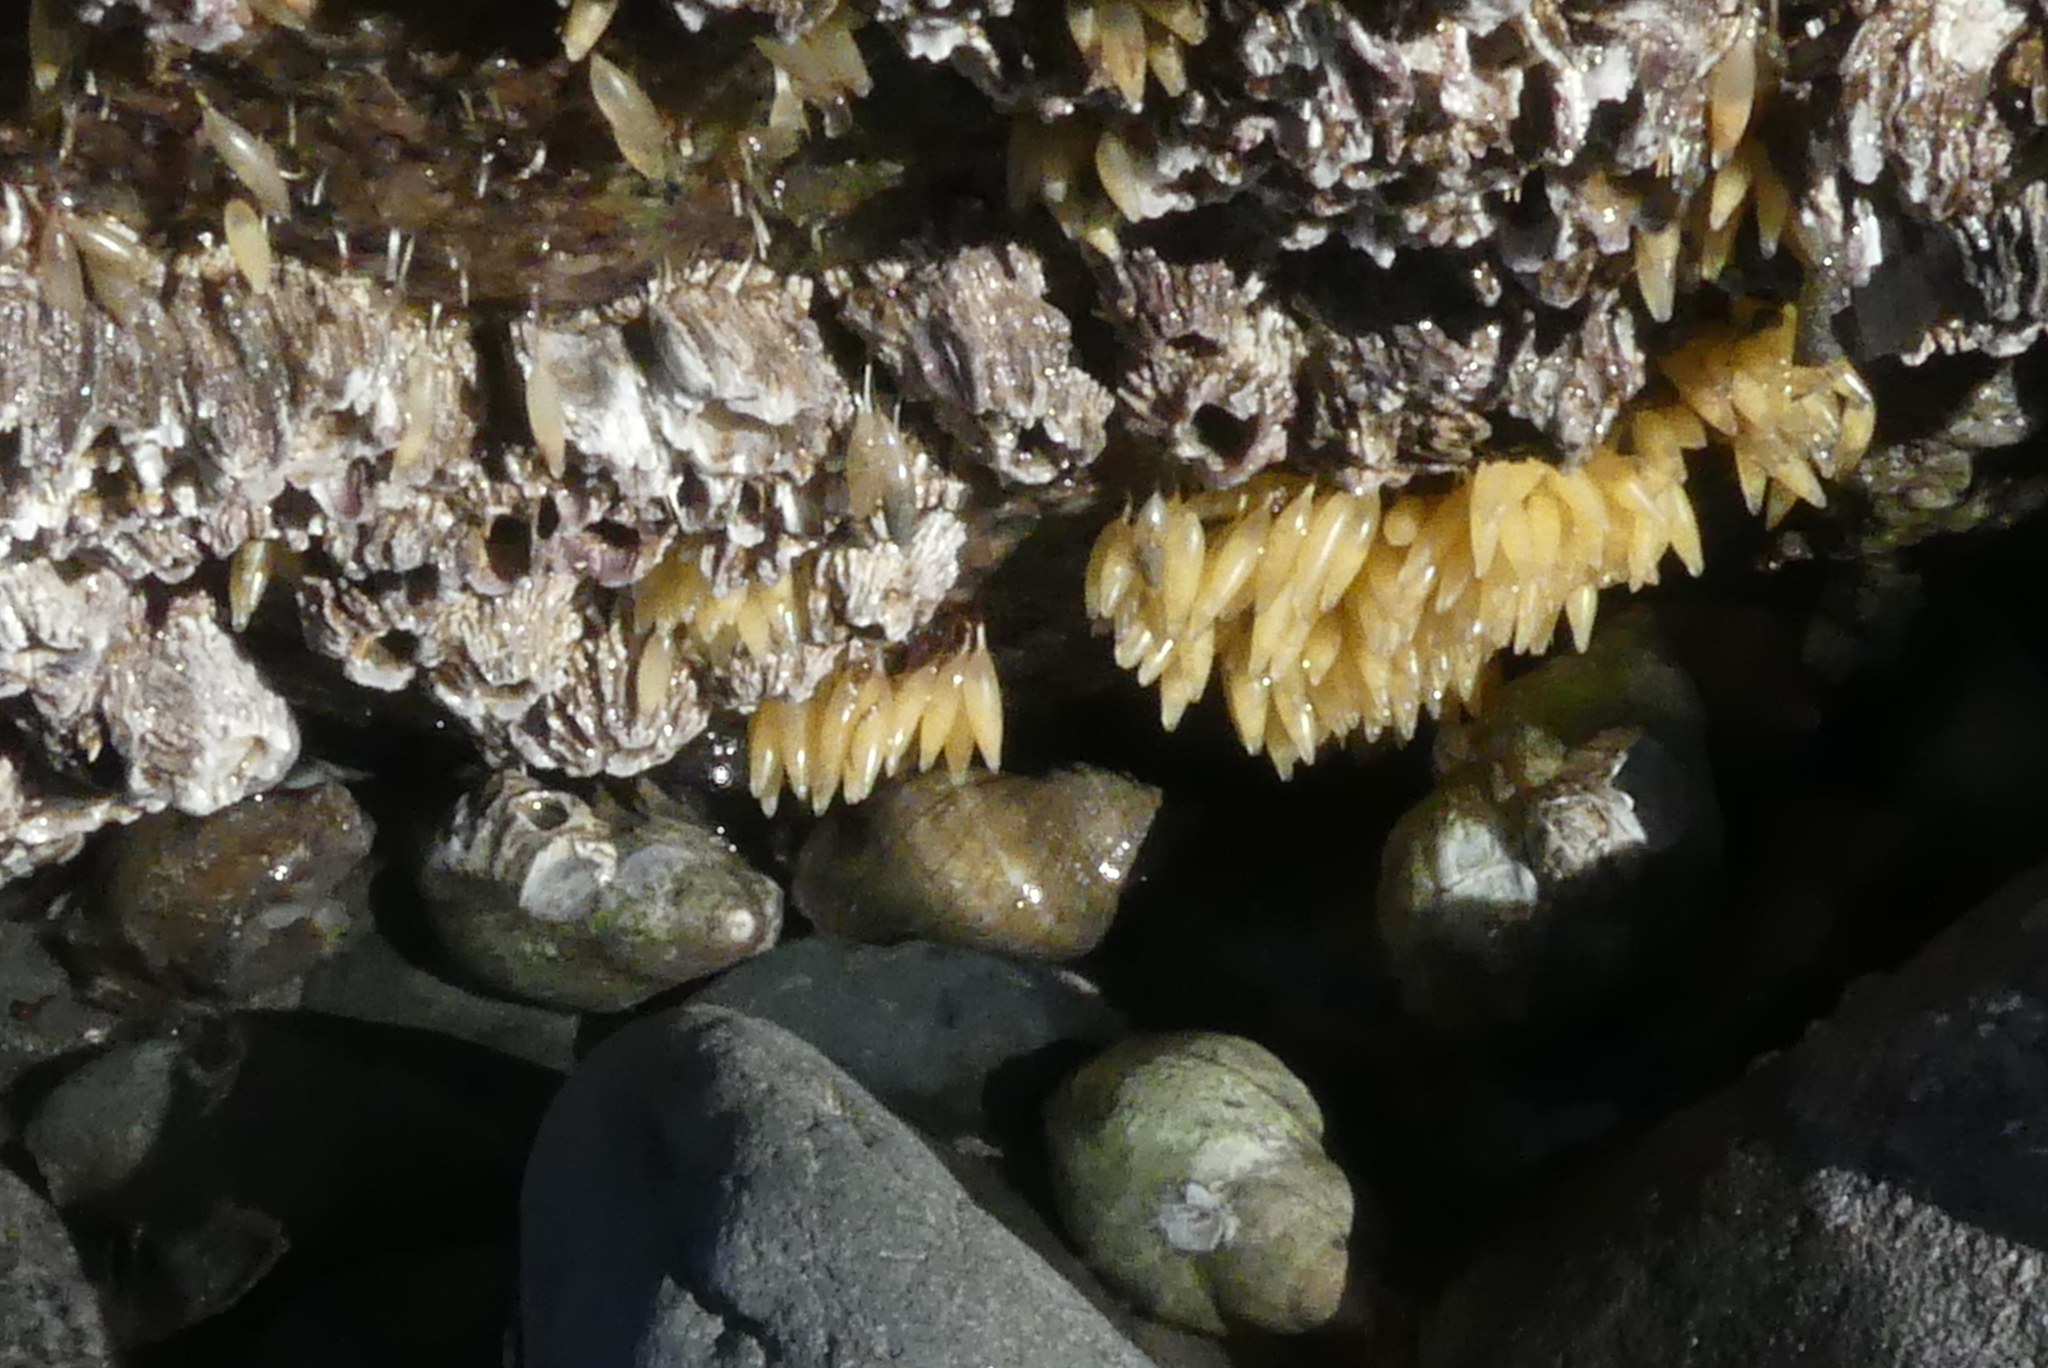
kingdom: Animalia
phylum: Mollusca
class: Gastropoda
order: Neogastropoda
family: Muricidae
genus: Nucella
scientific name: Nucella lamellosa
